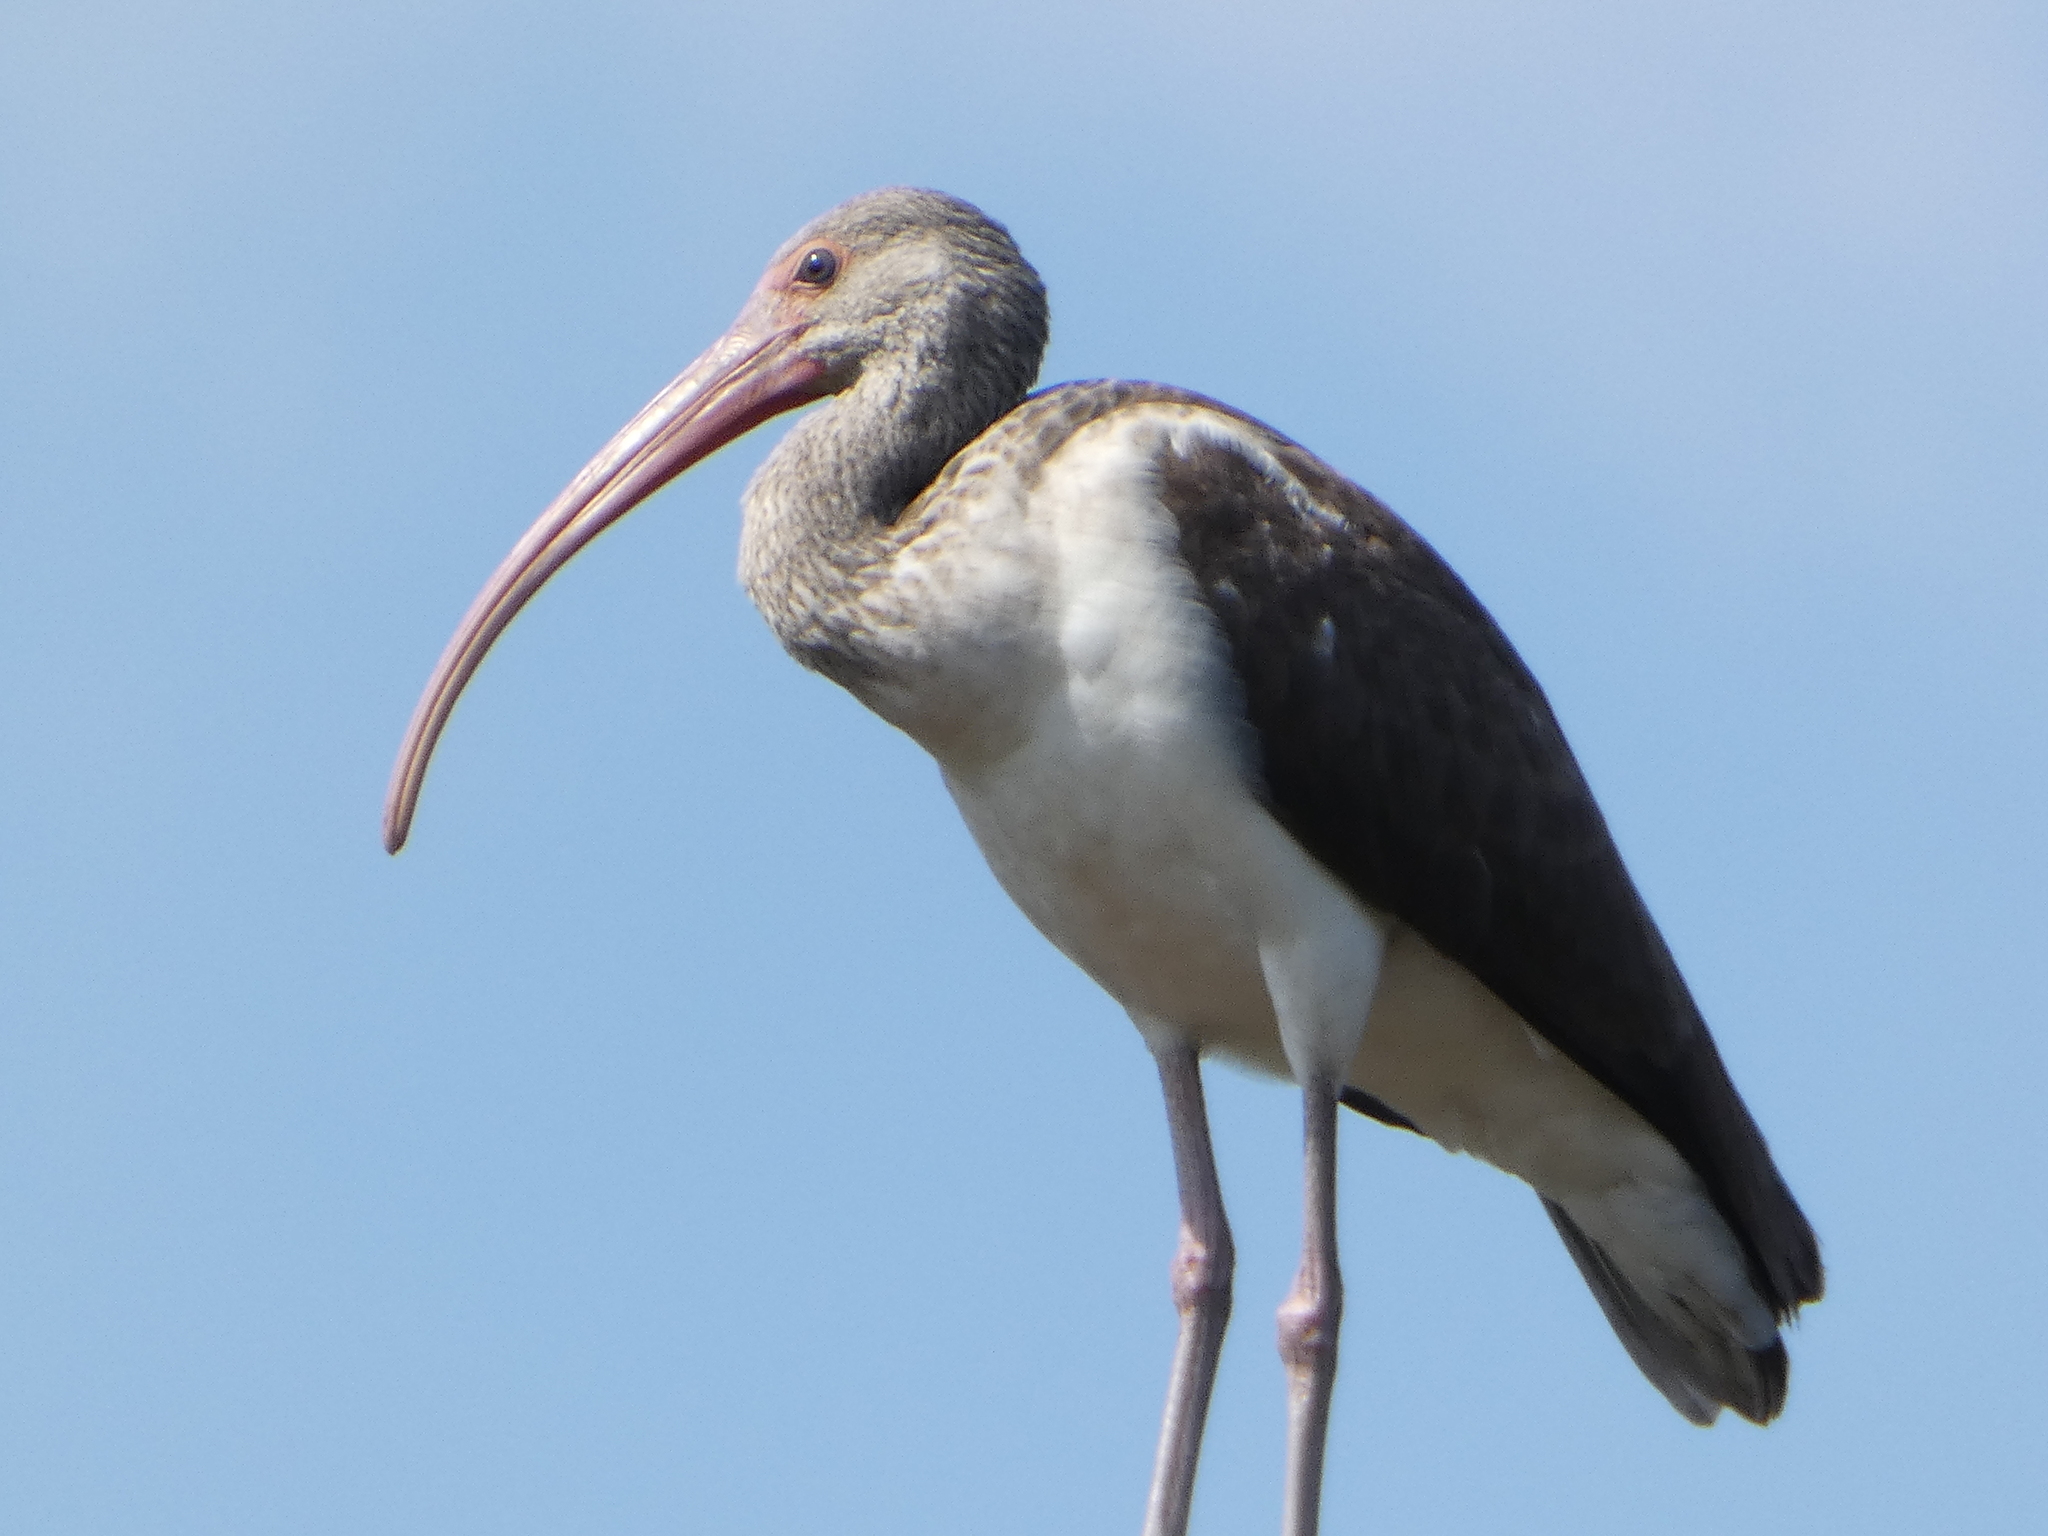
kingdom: Animalia
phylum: Chordata
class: Aves
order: Pelecaniformes
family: Threskiornithidae
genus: Eudocimus
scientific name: Eudocimus albus
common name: White ibis
